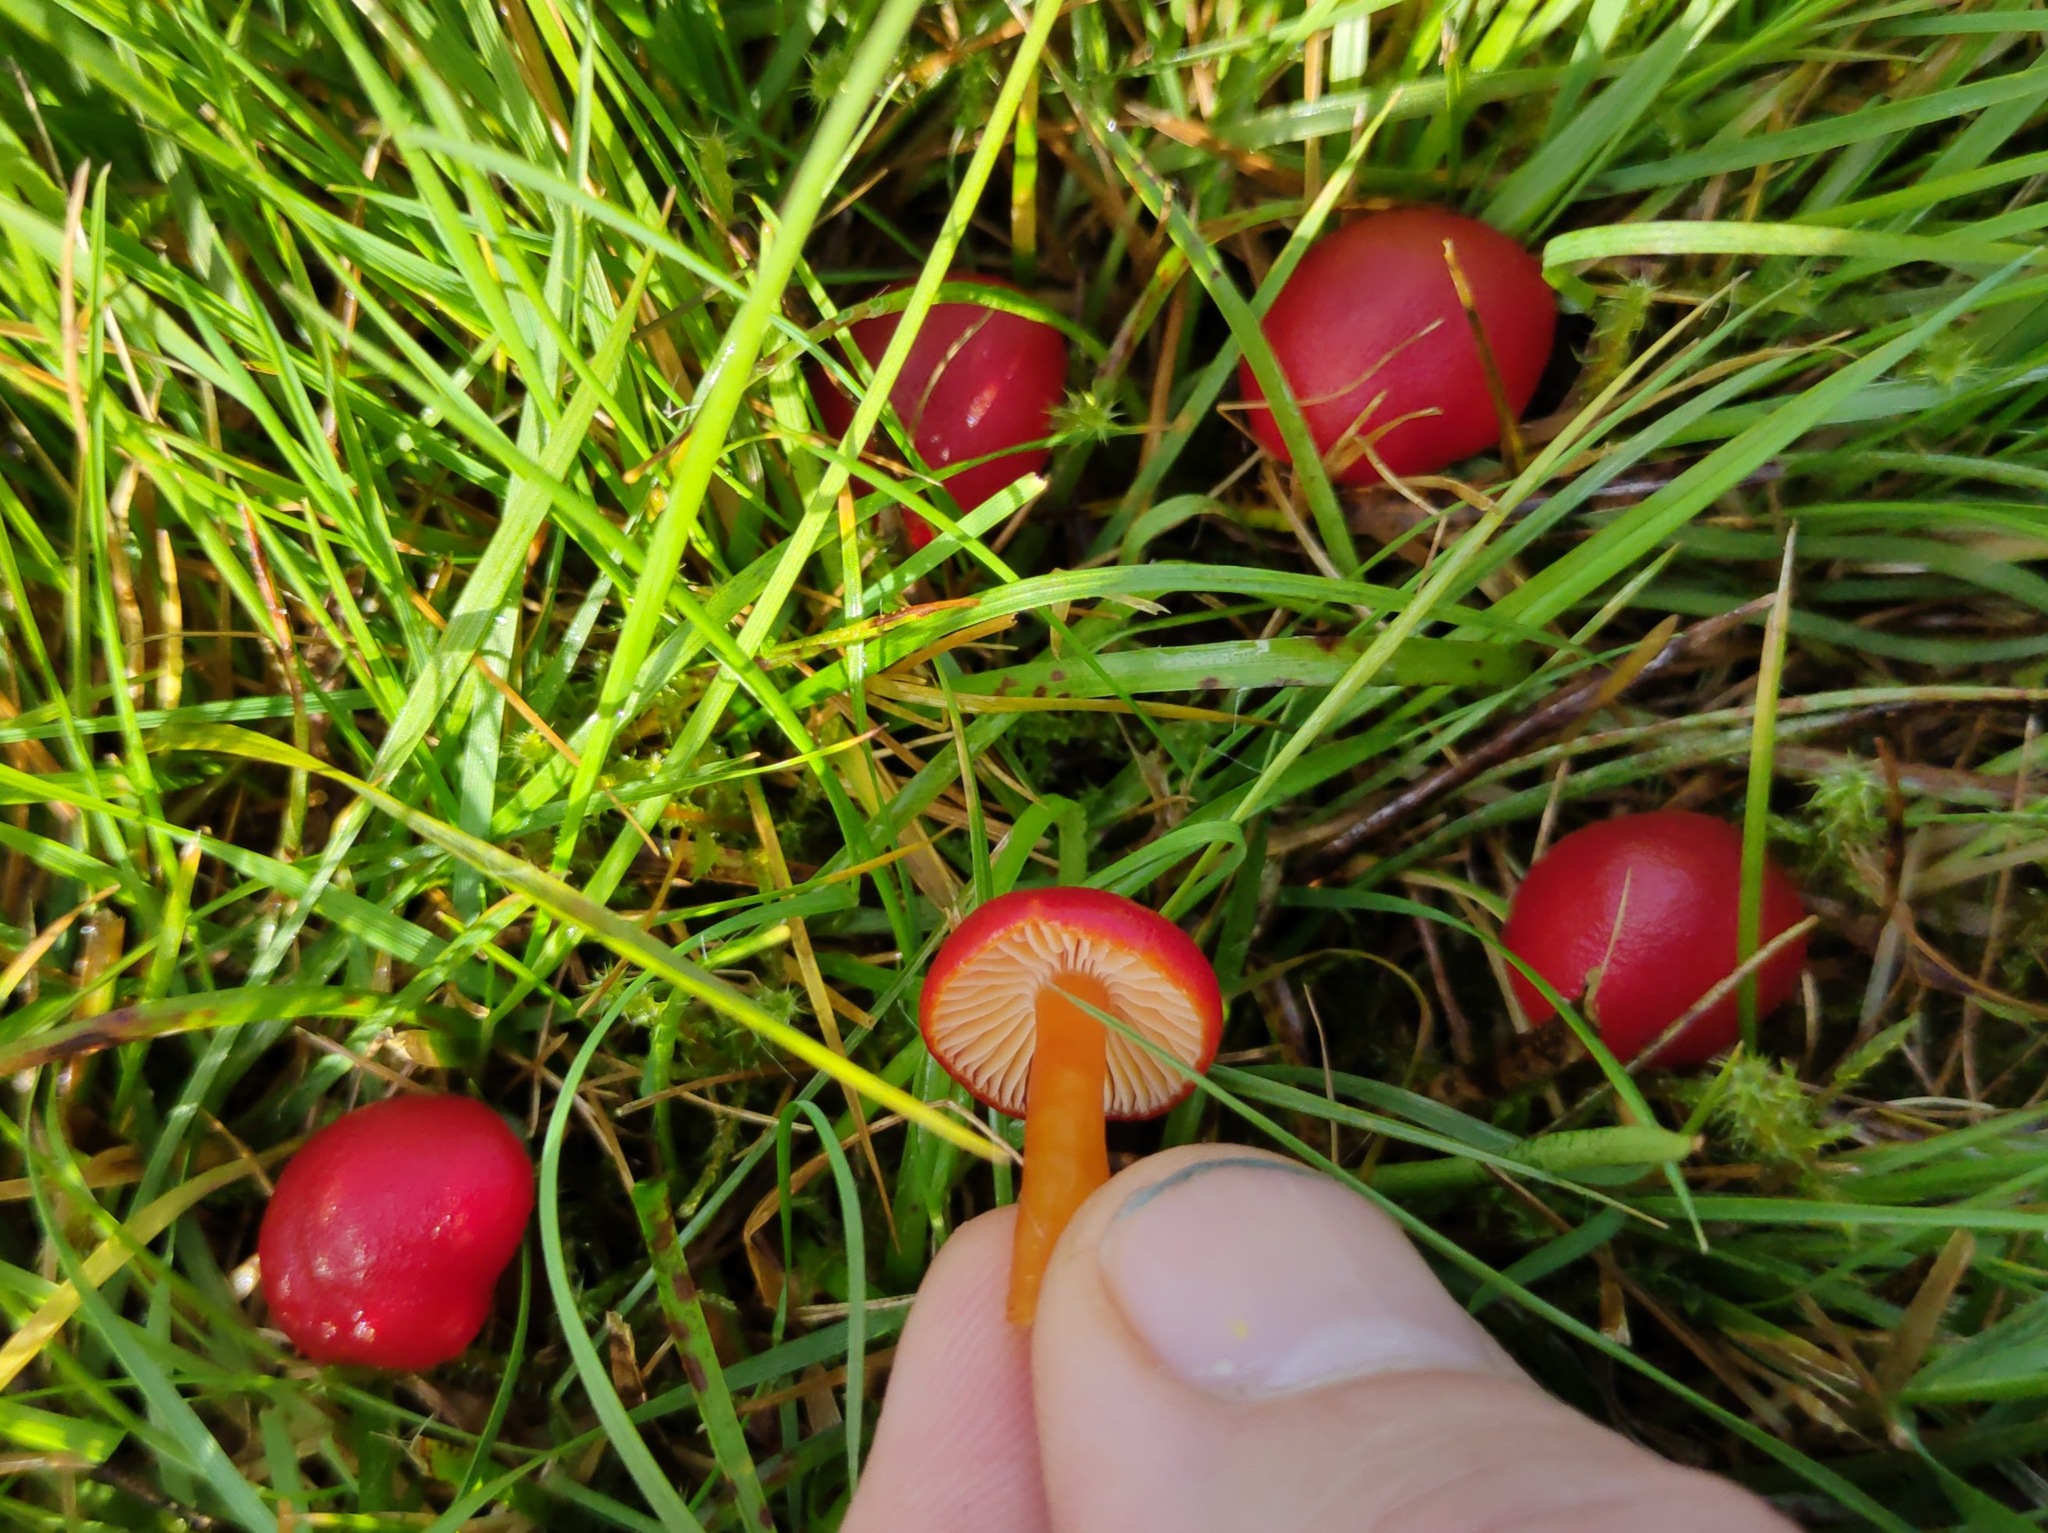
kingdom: Fungi
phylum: Basidiomycota
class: Agaricomycetes
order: Agaricales
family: Hygrophoraceae
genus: Hygrocybe
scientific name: Hygrocybe coccinea
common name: Scarlet hood
